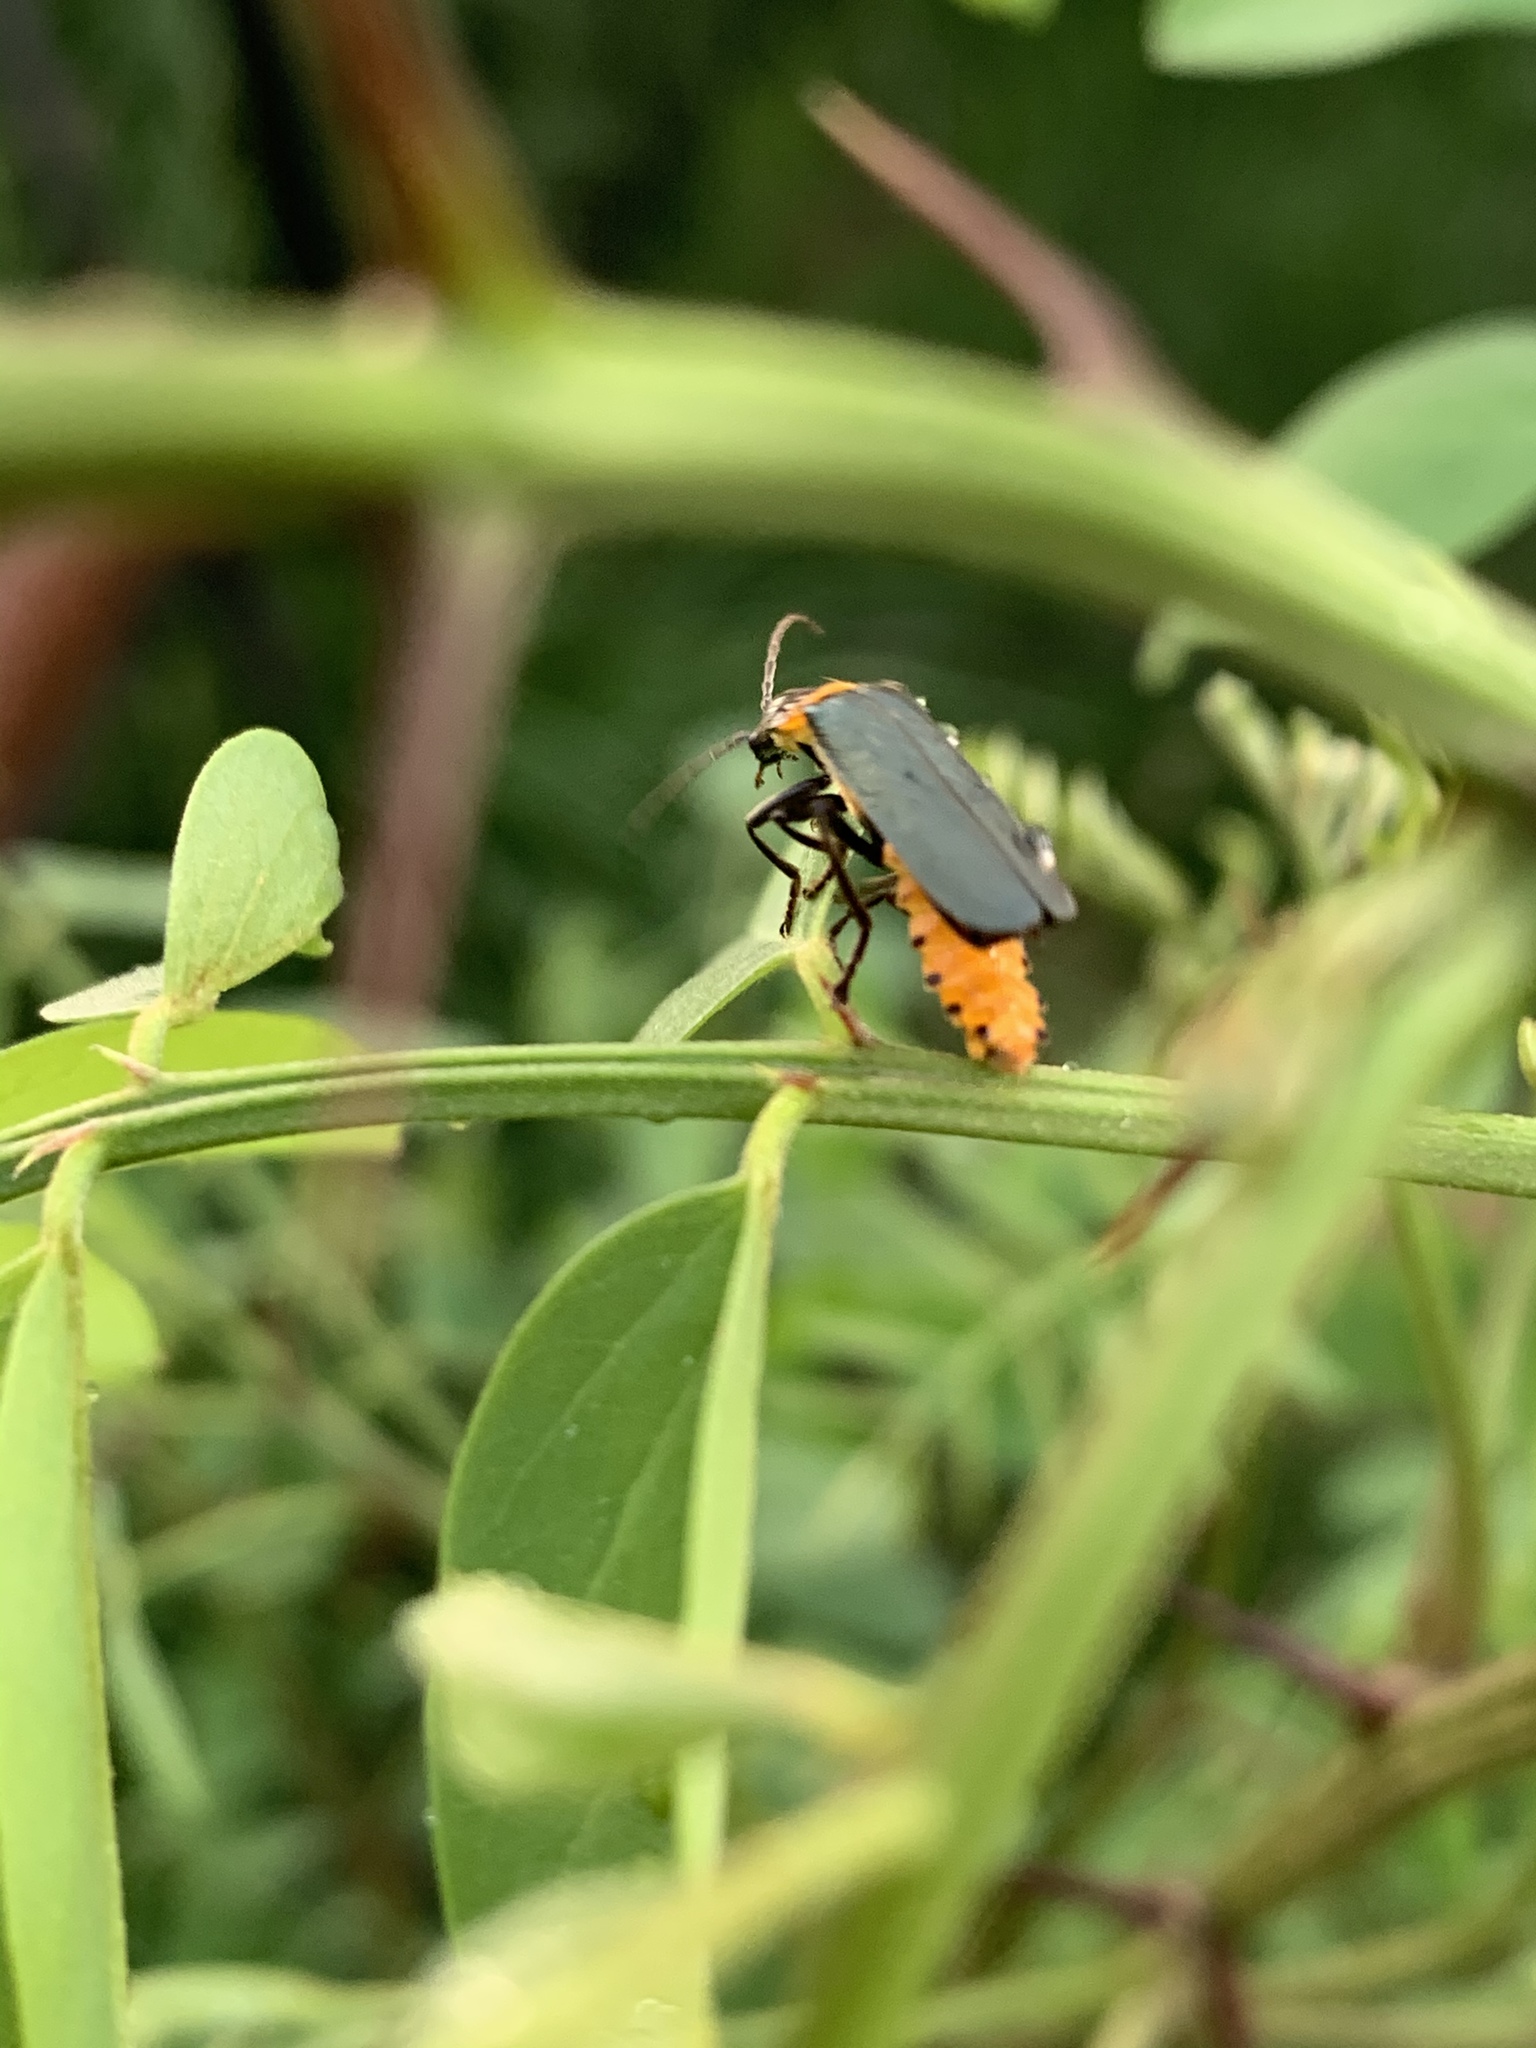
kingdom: Animalia
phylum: Arthropoda
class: Insecta
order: Coleoptera
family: Cantharidae
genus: Chauliognathus
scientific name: Chauliognathus
